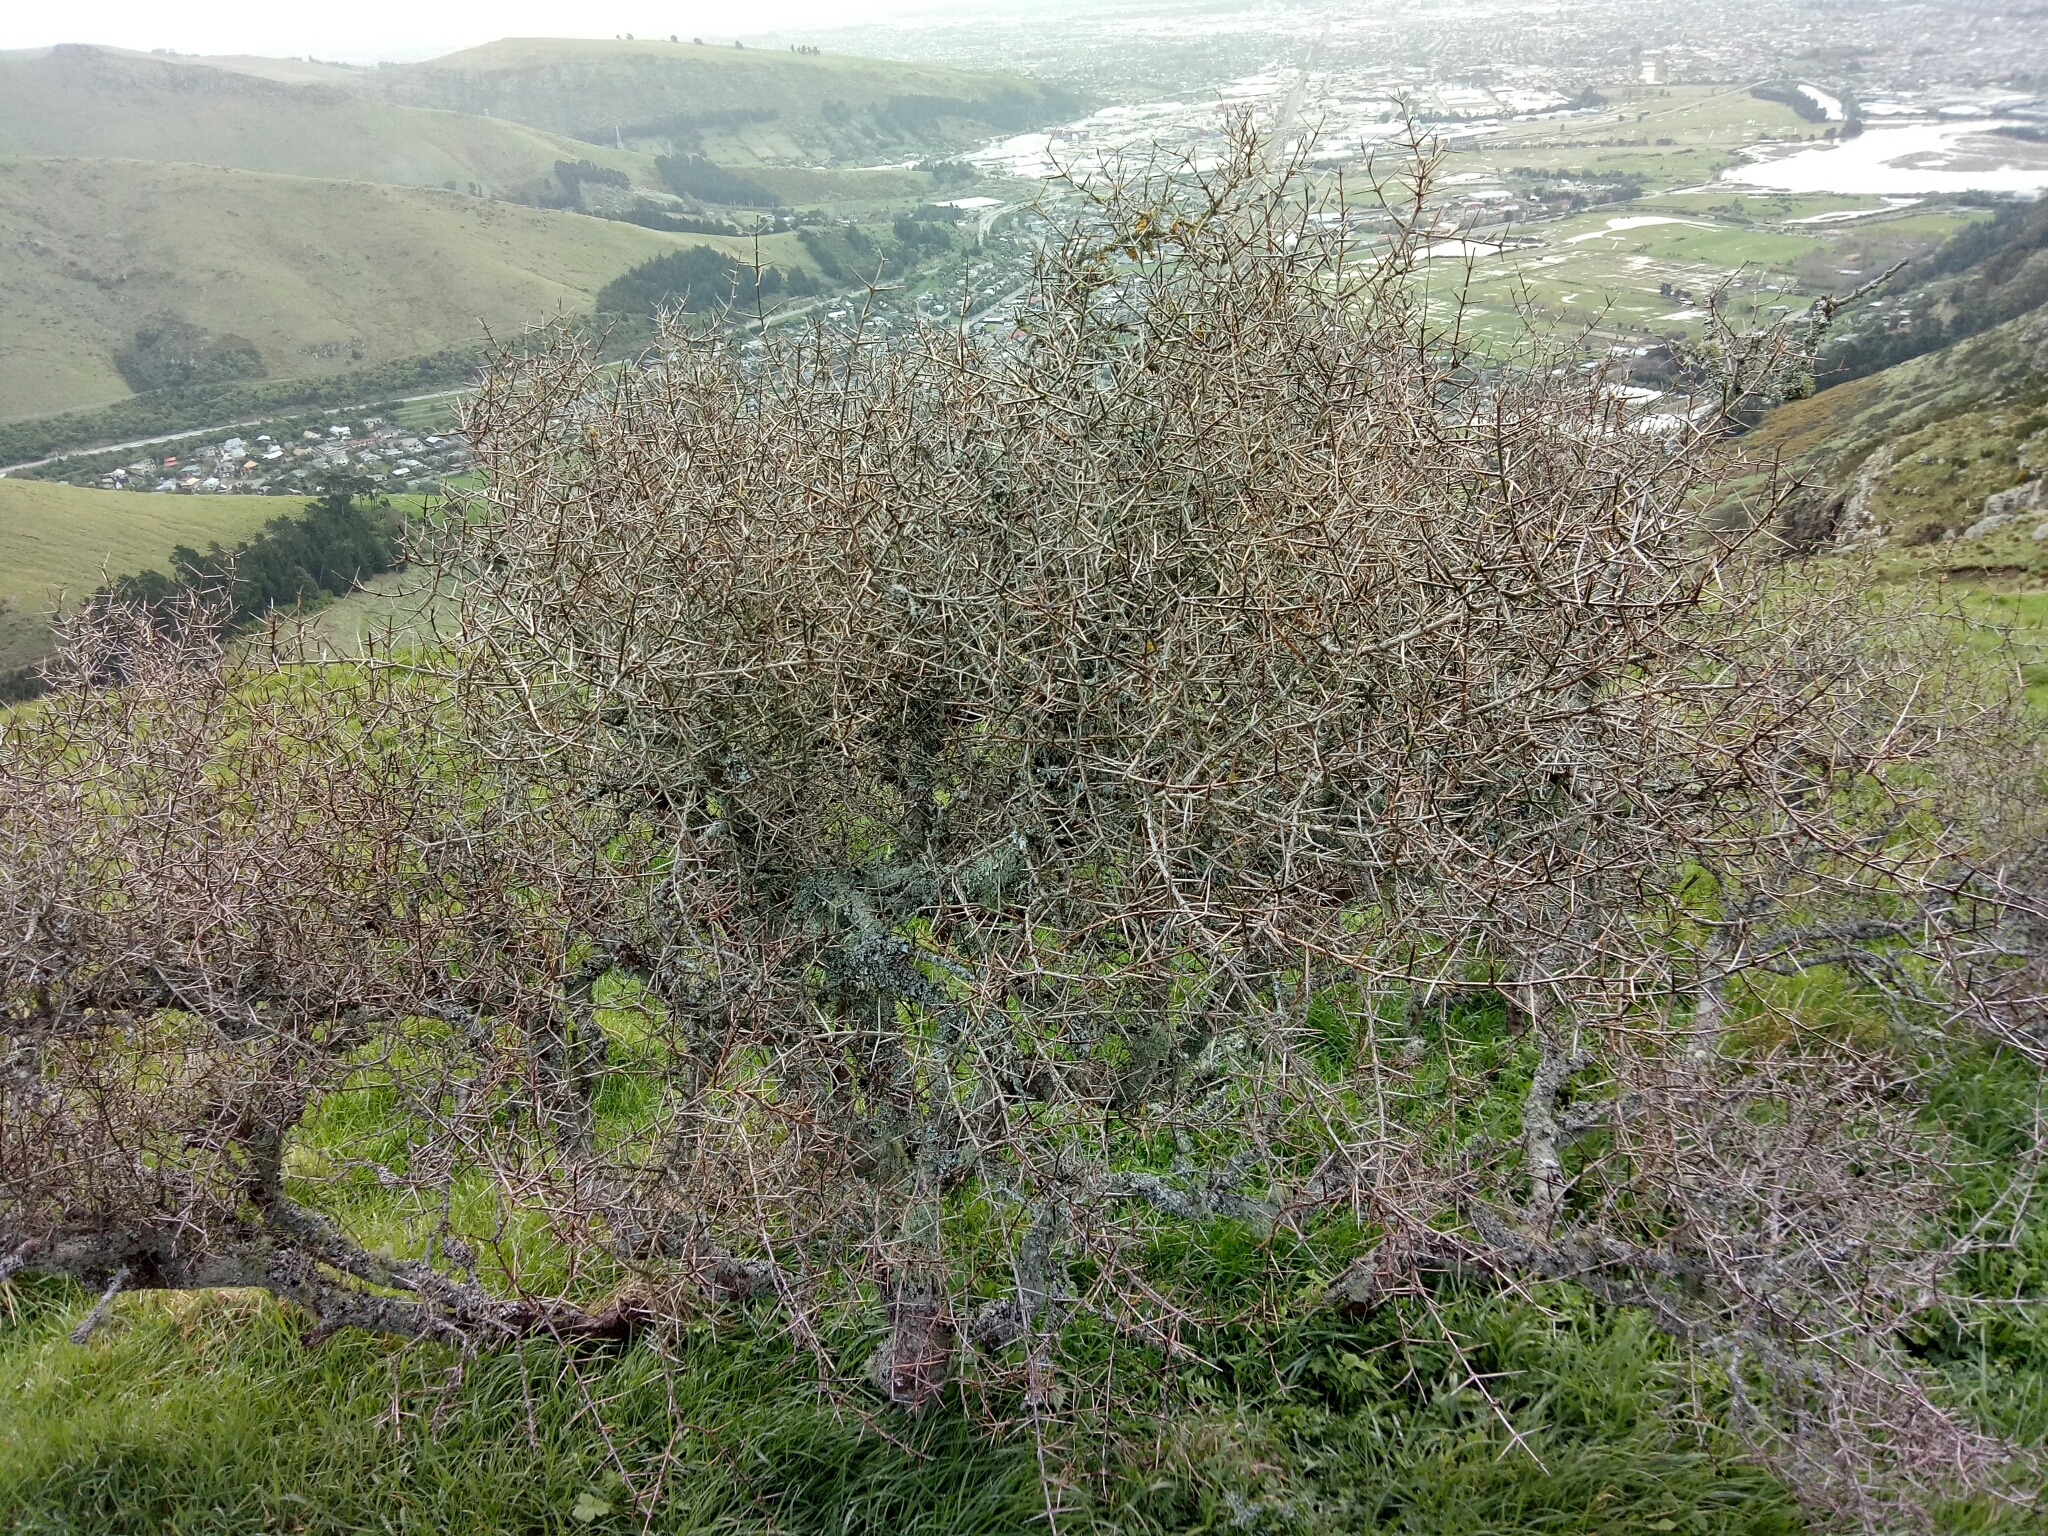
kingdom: Plantae
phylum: Tracheophyta
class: Magnoliopsida
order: Rosales
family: Rhamnaceae
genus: Discaria
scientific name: Discaria toumatou
